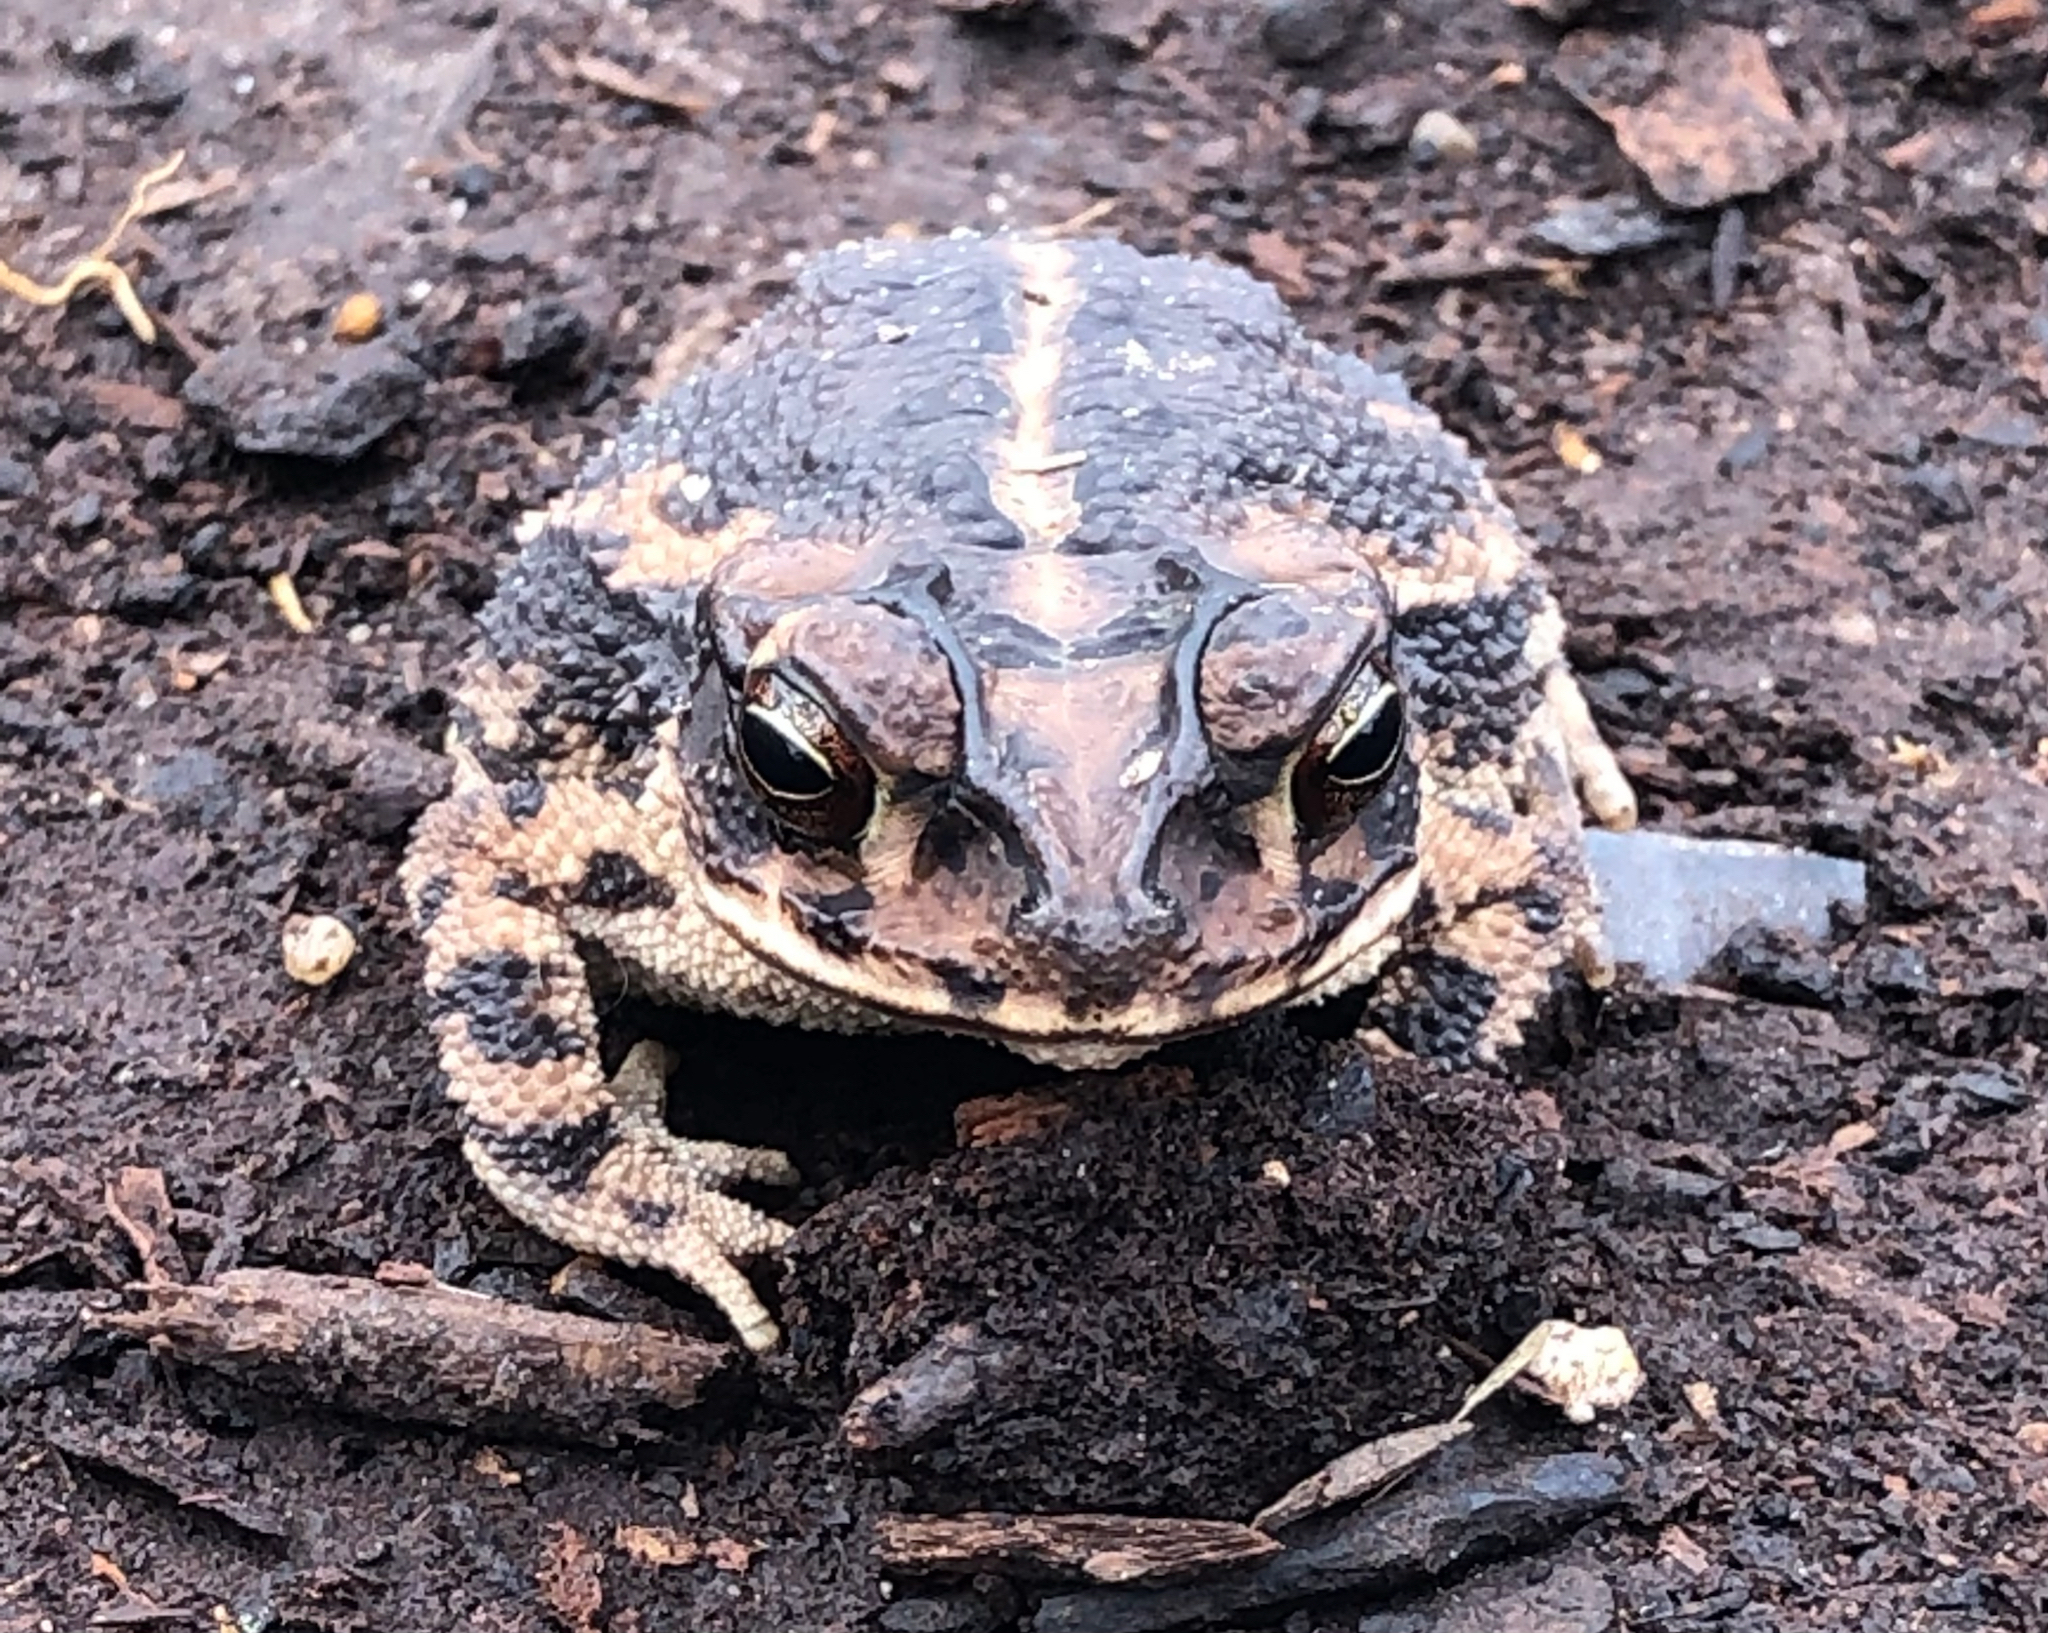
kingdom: Animalia
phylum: Chordata
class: Amphibia
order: Anura
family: Bufonidae
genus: Incilius
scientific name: Incilius nebulifer
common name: Gulf coast toad
